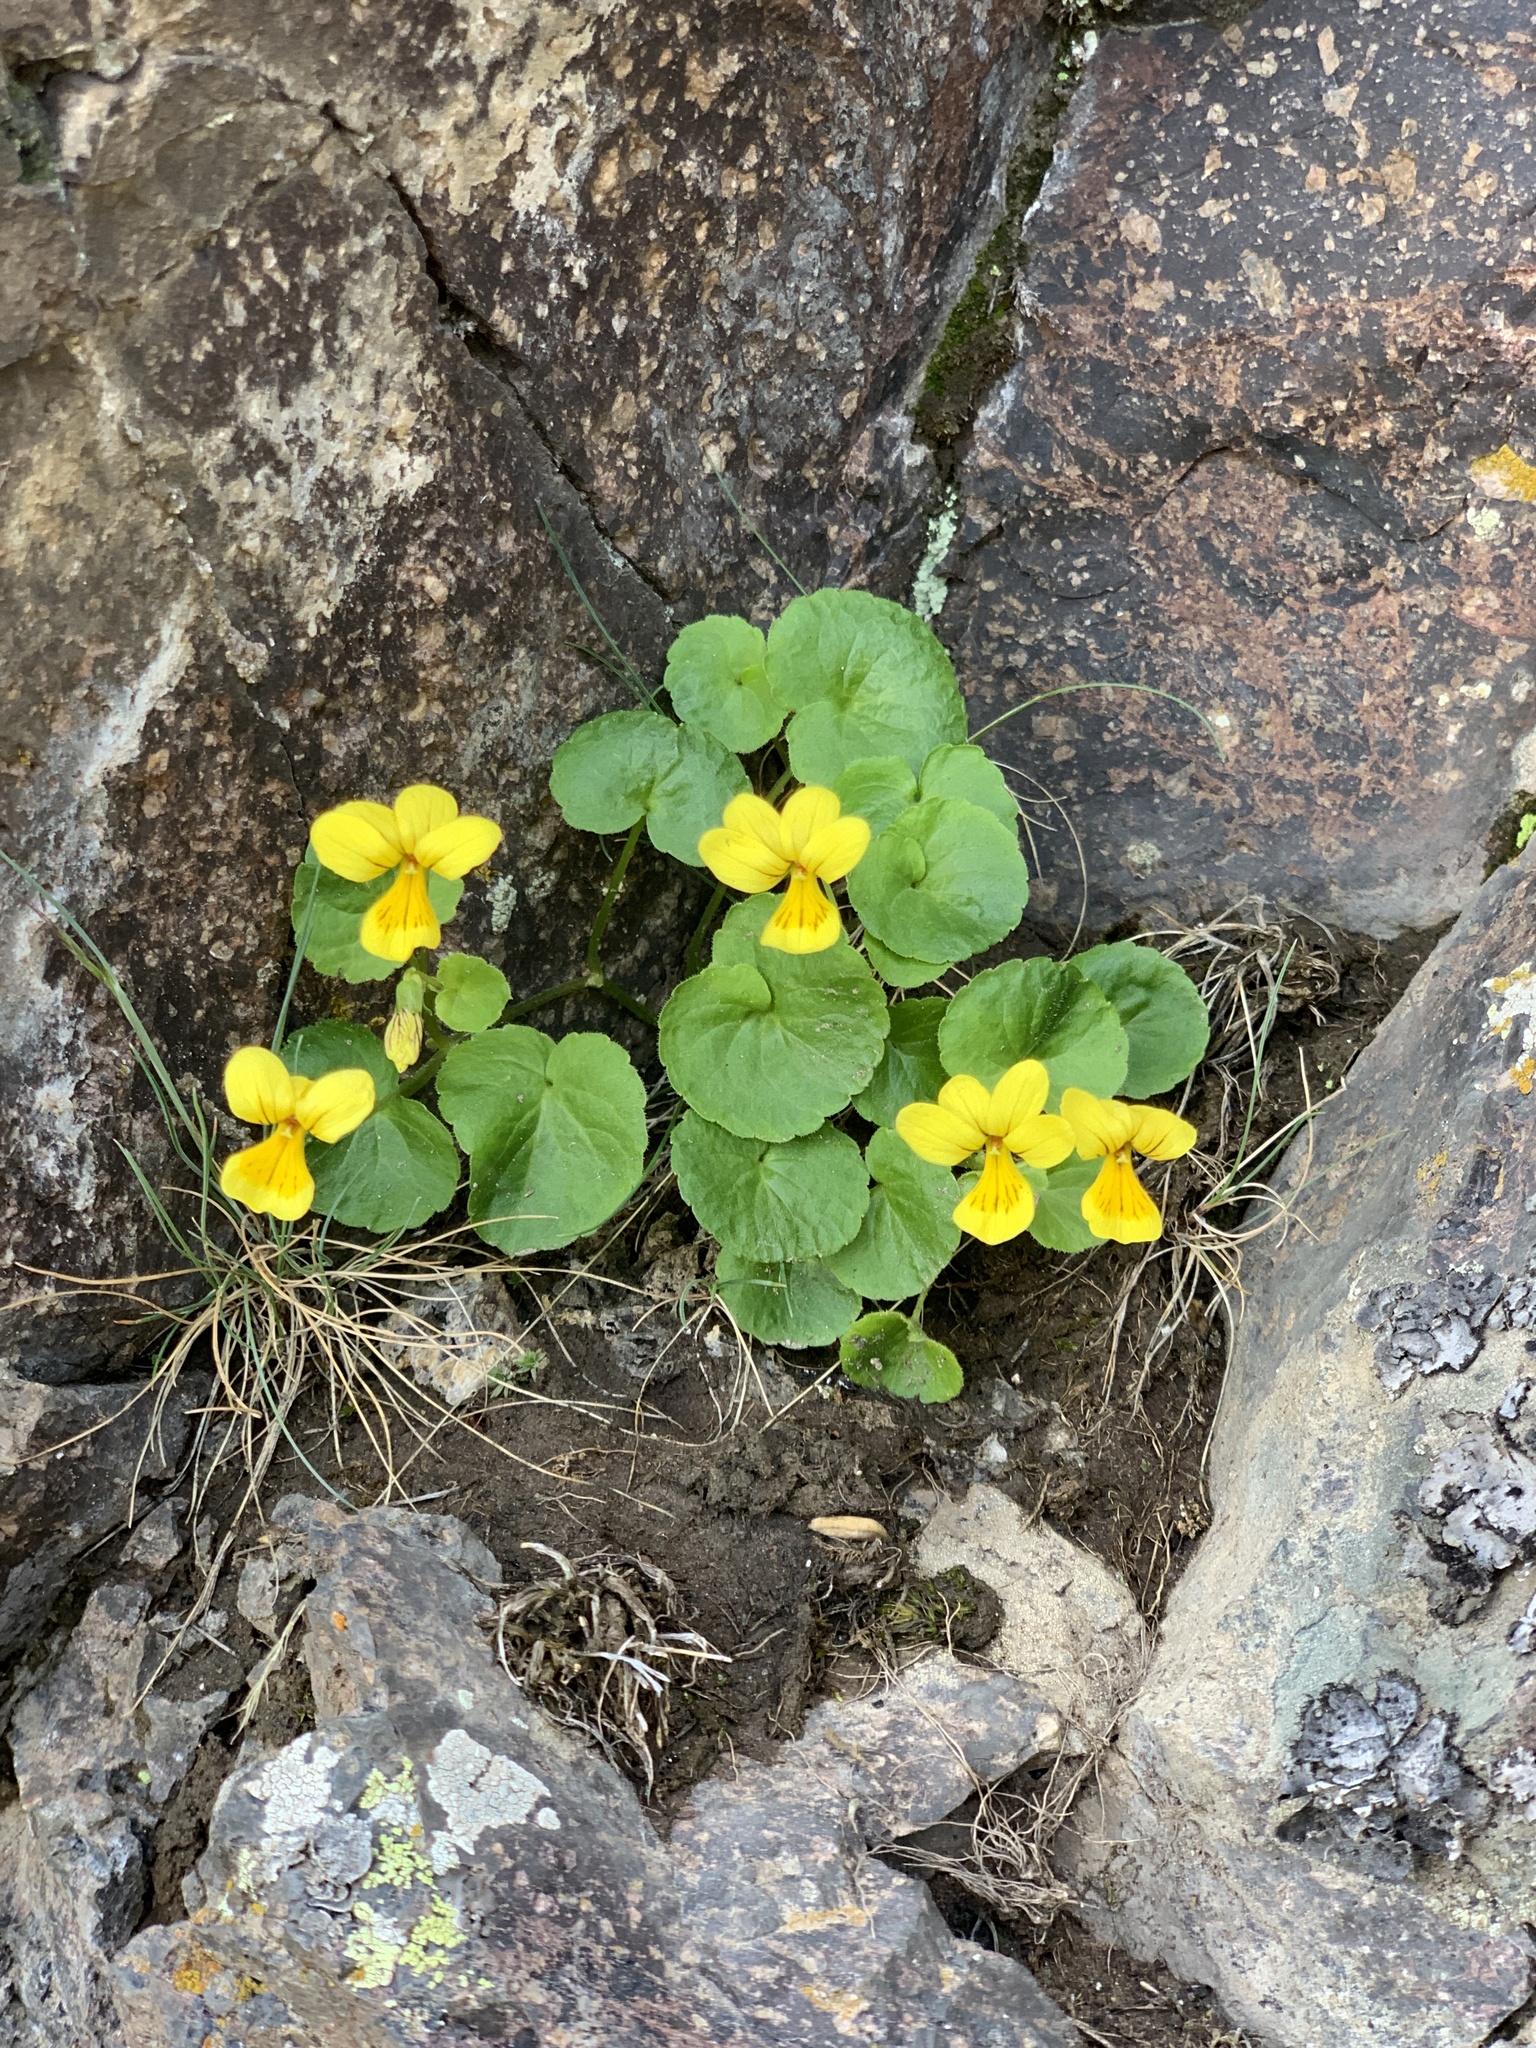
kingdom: Plantae
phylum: Tracheophyta
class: Magnoliopsida
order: Malpighiales
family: Violaceae
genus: Viola
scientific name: Viola caucasica
